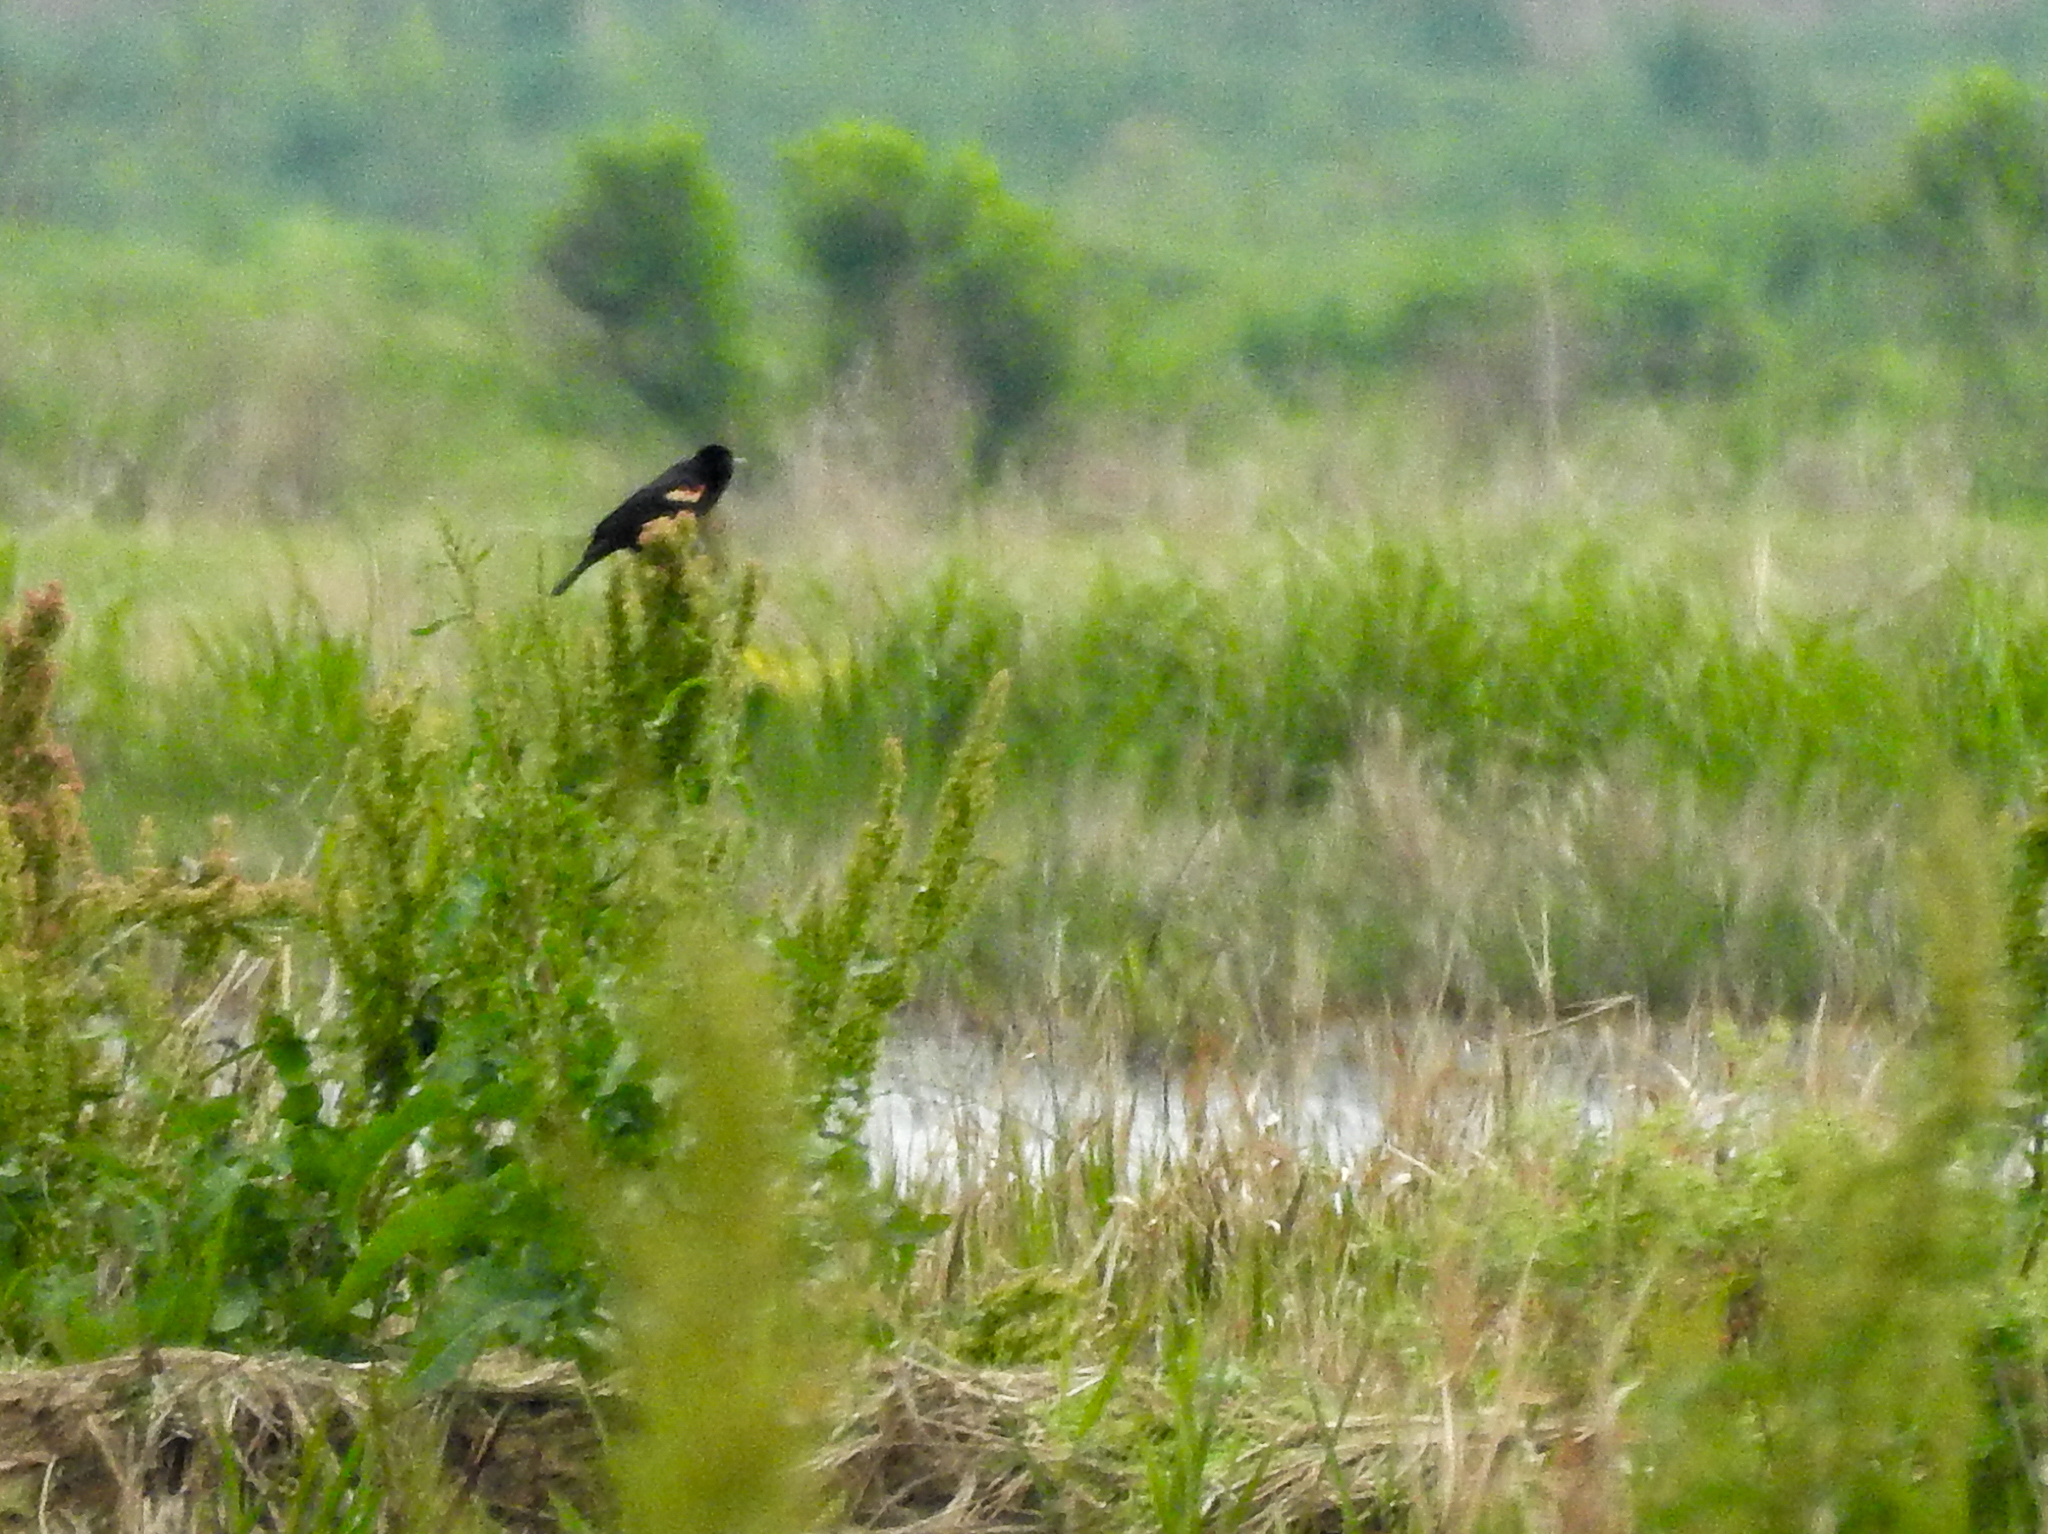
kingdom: Animalia
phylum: Chordata
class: Aves
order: Passeriformes
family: Icteridae
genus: Agelaius
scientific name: Agelaius phoeniceus
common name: Red-winged blackbird
